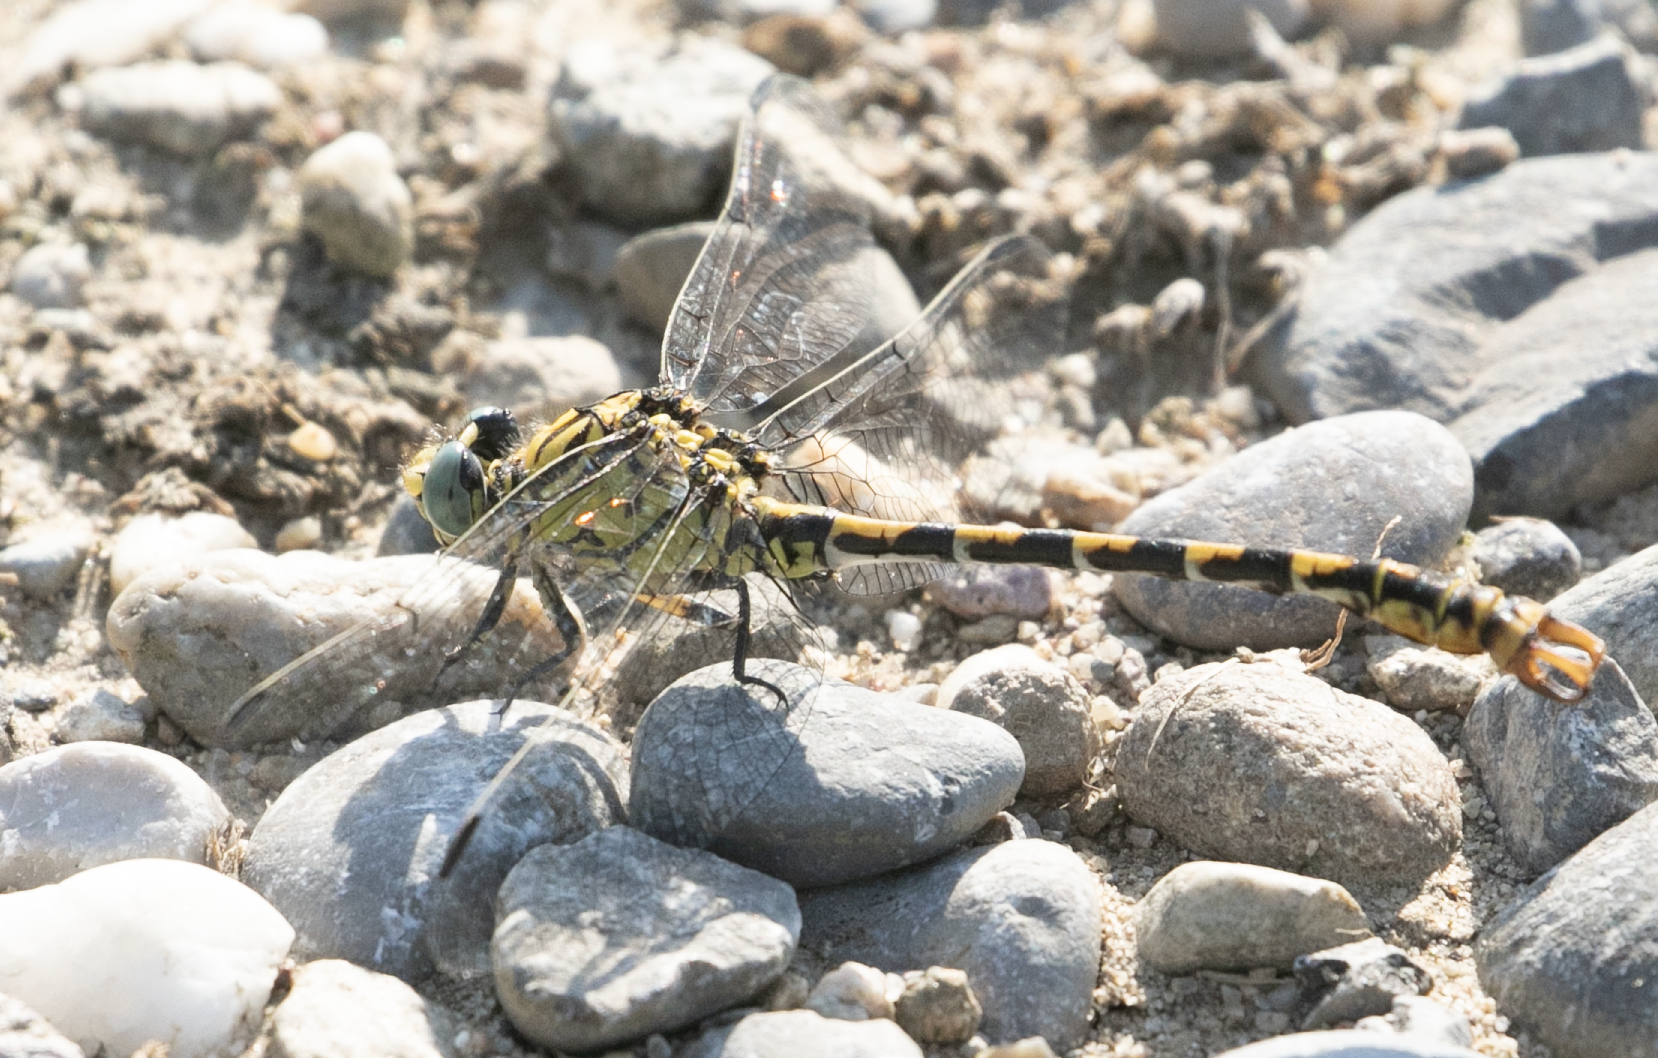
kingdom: Animalia
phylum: Arthropoda
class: Insecta
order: Odonata
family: Gomphidae
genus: Onychogomphus
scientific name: Onychogomphus forcipatus
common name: Small pincertail
